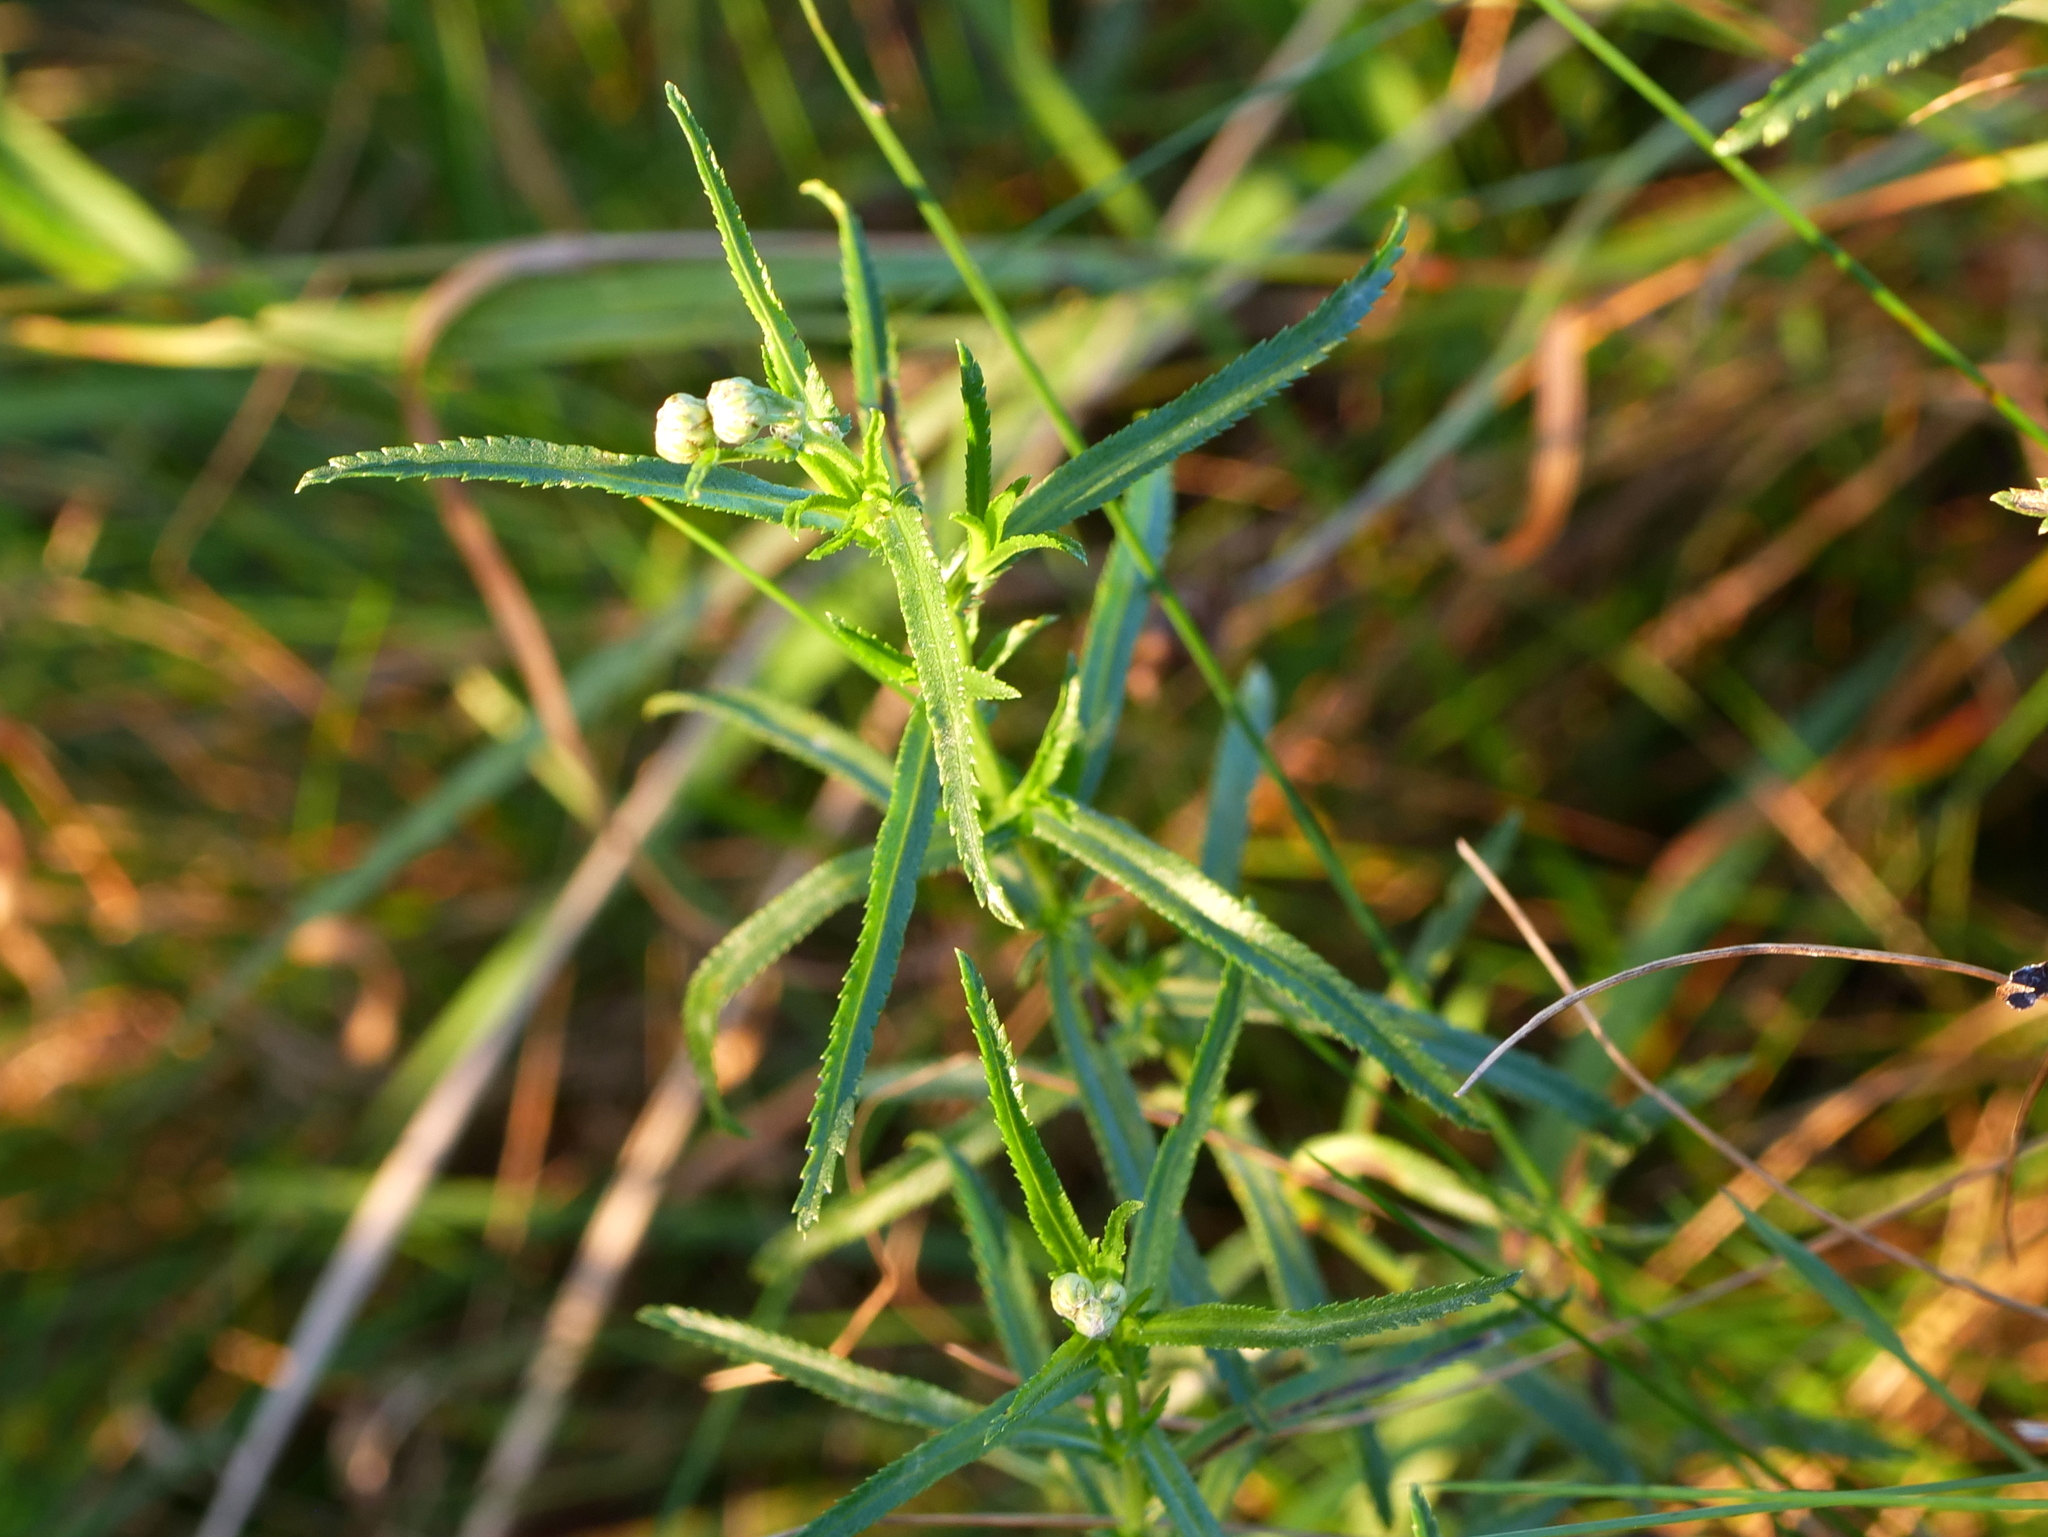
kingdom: Plantae
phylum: Tracheophyta
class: Magnoliopsida
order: Asterales
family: Asteraceae
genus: Achillea
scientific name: Achillea ptarmica
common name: Sneezeweed
